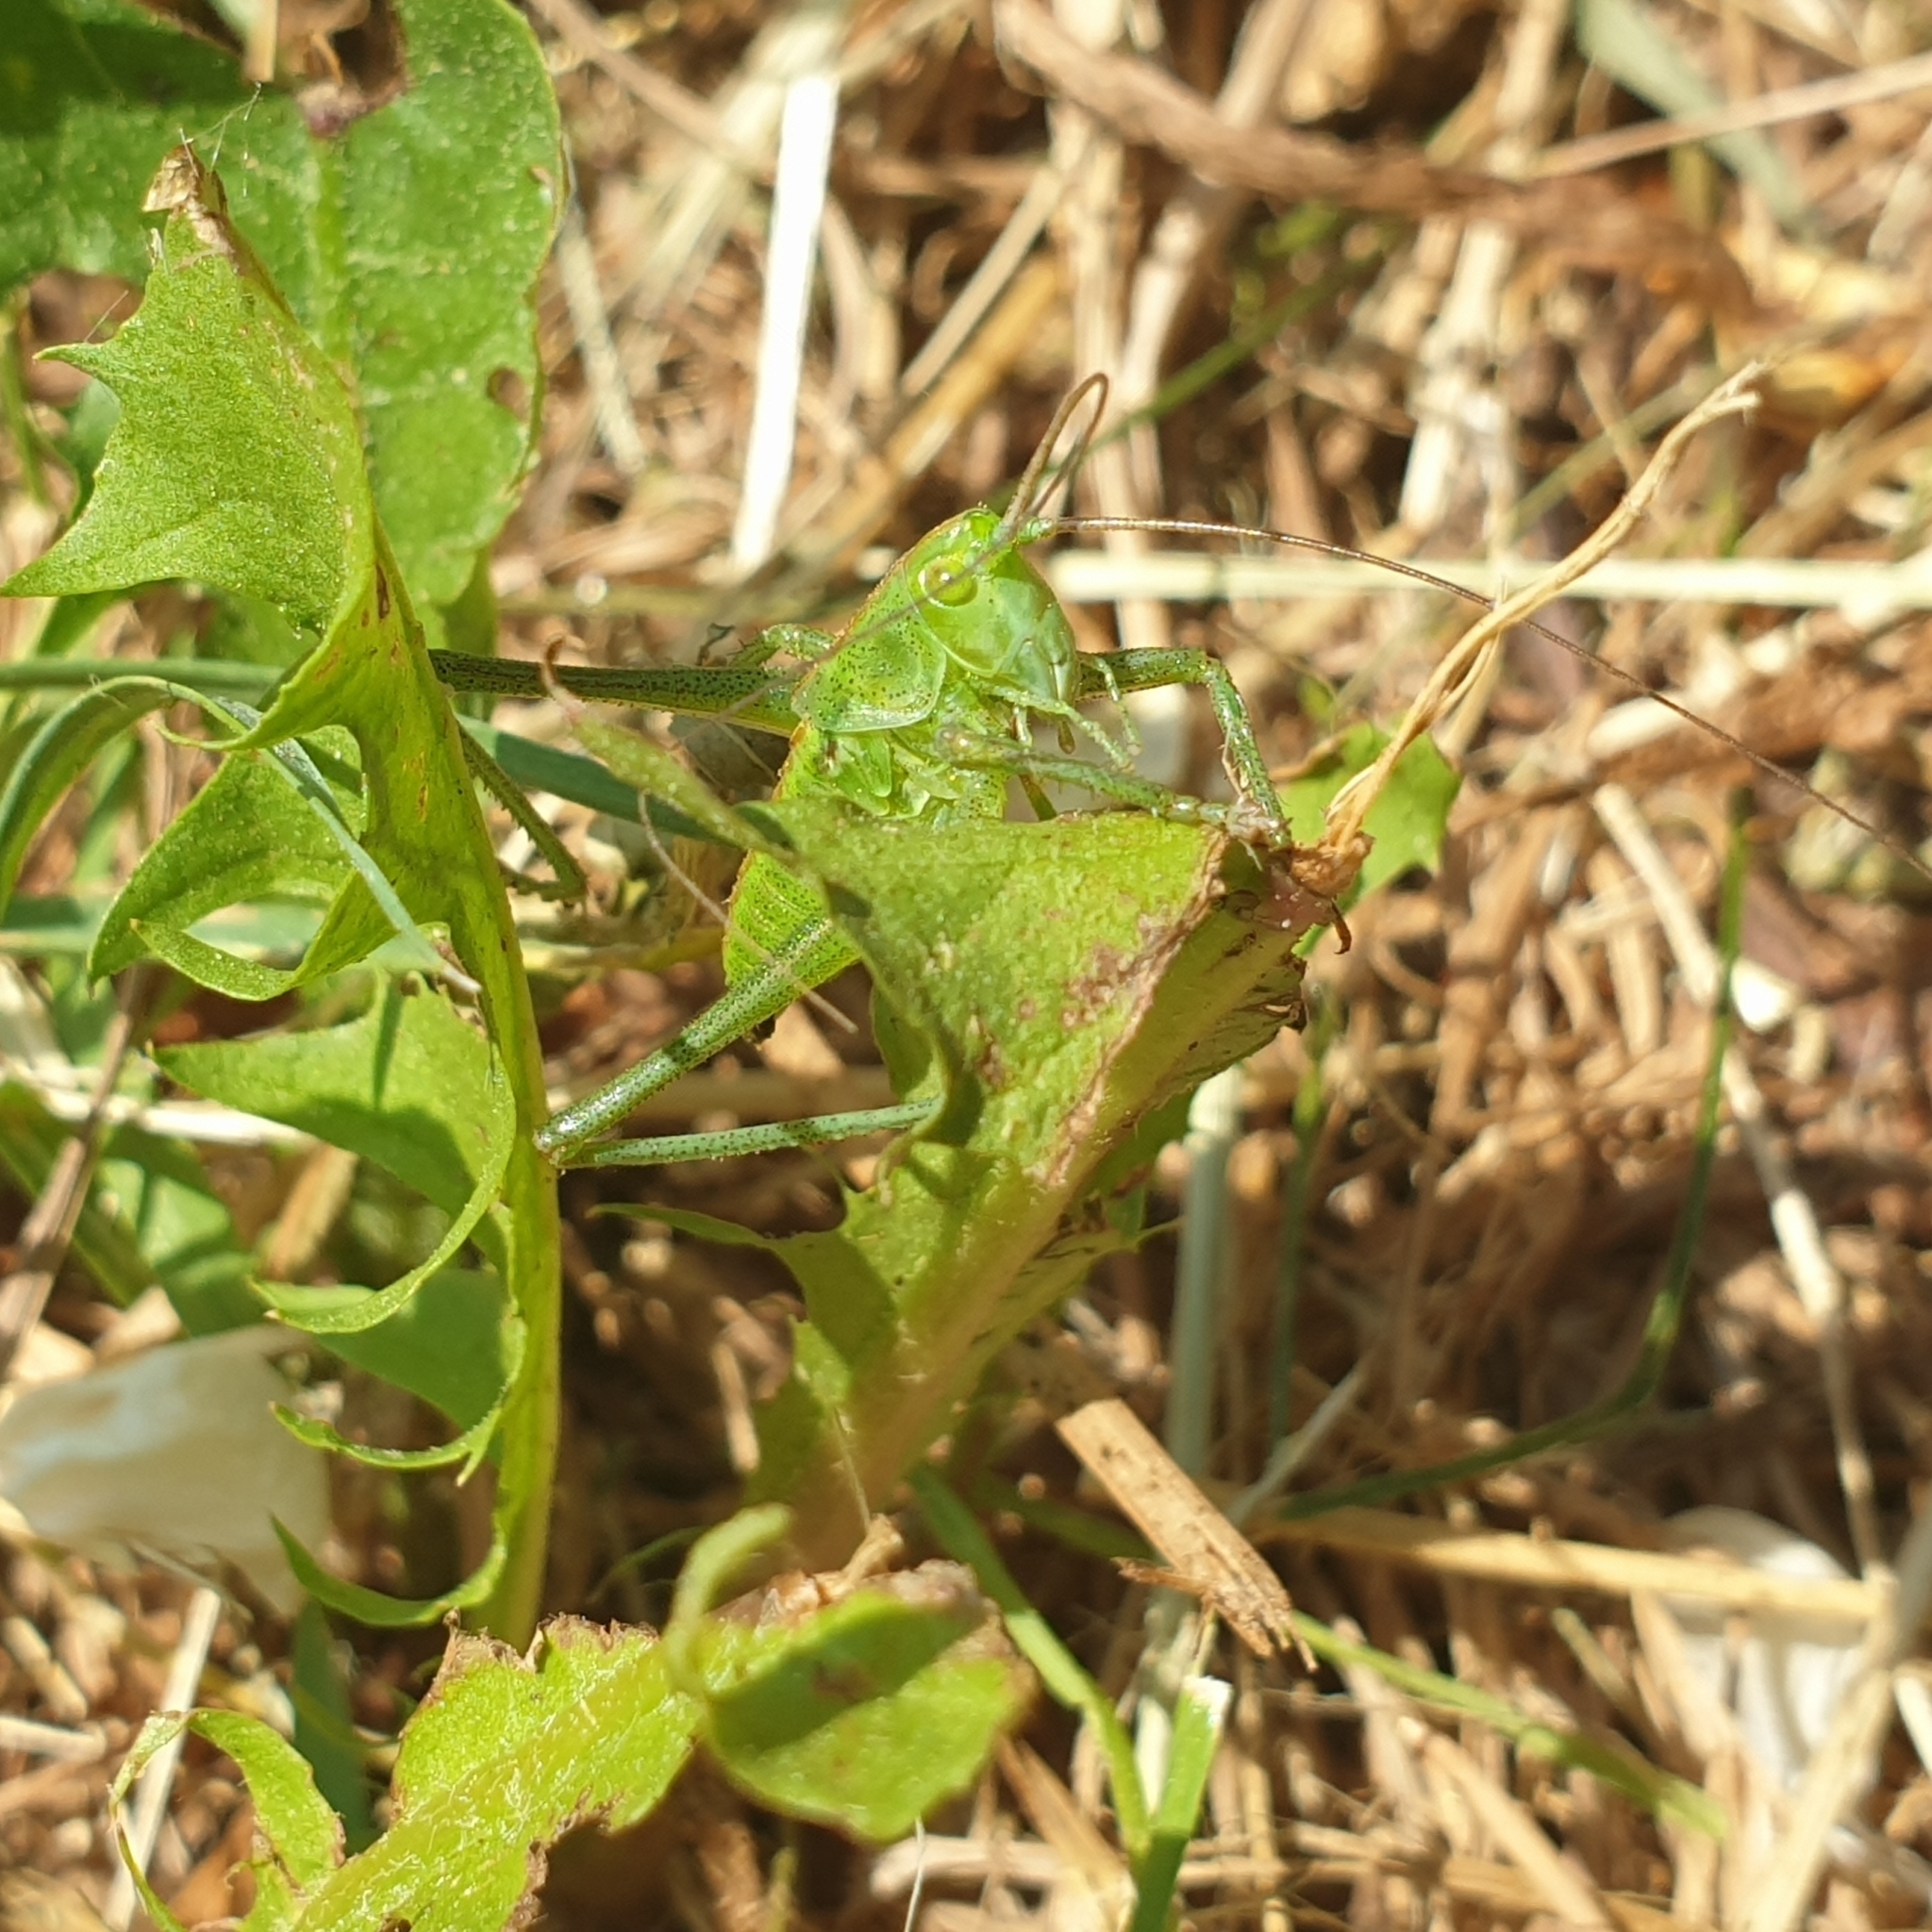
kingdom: Animalia
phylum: Arthropoda
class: Insecta
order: Orthoptera
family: Tettigoniidae
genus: Tettigonia
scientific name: Tettigonia viridissima
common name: Great green bush-cricket
